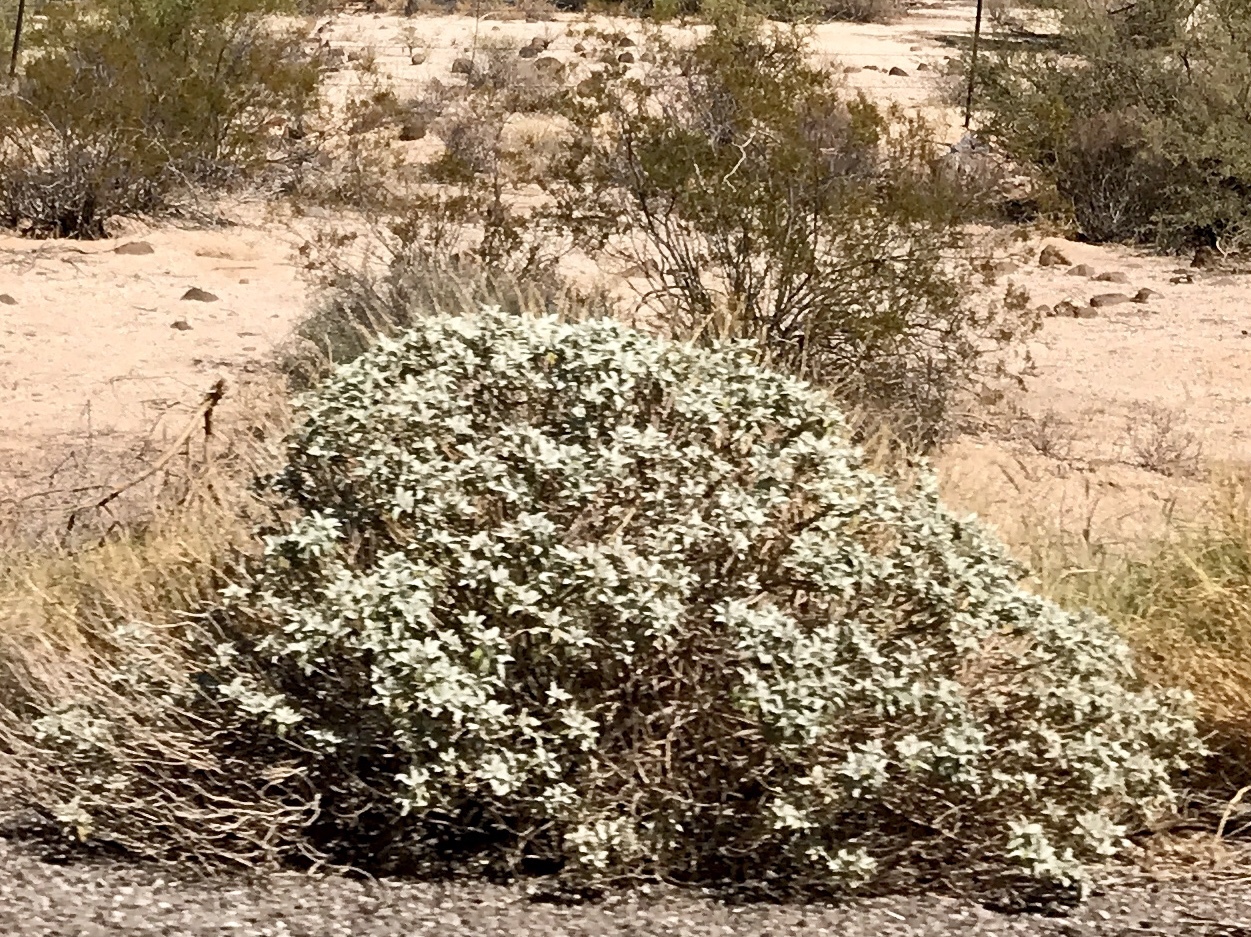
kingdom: Plantae
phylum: Tracheophyta
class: Magnoliopsida
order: Asterales
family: Asteraceae
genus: Encelia
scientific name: Encelia farinosa
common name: Brittlebush
